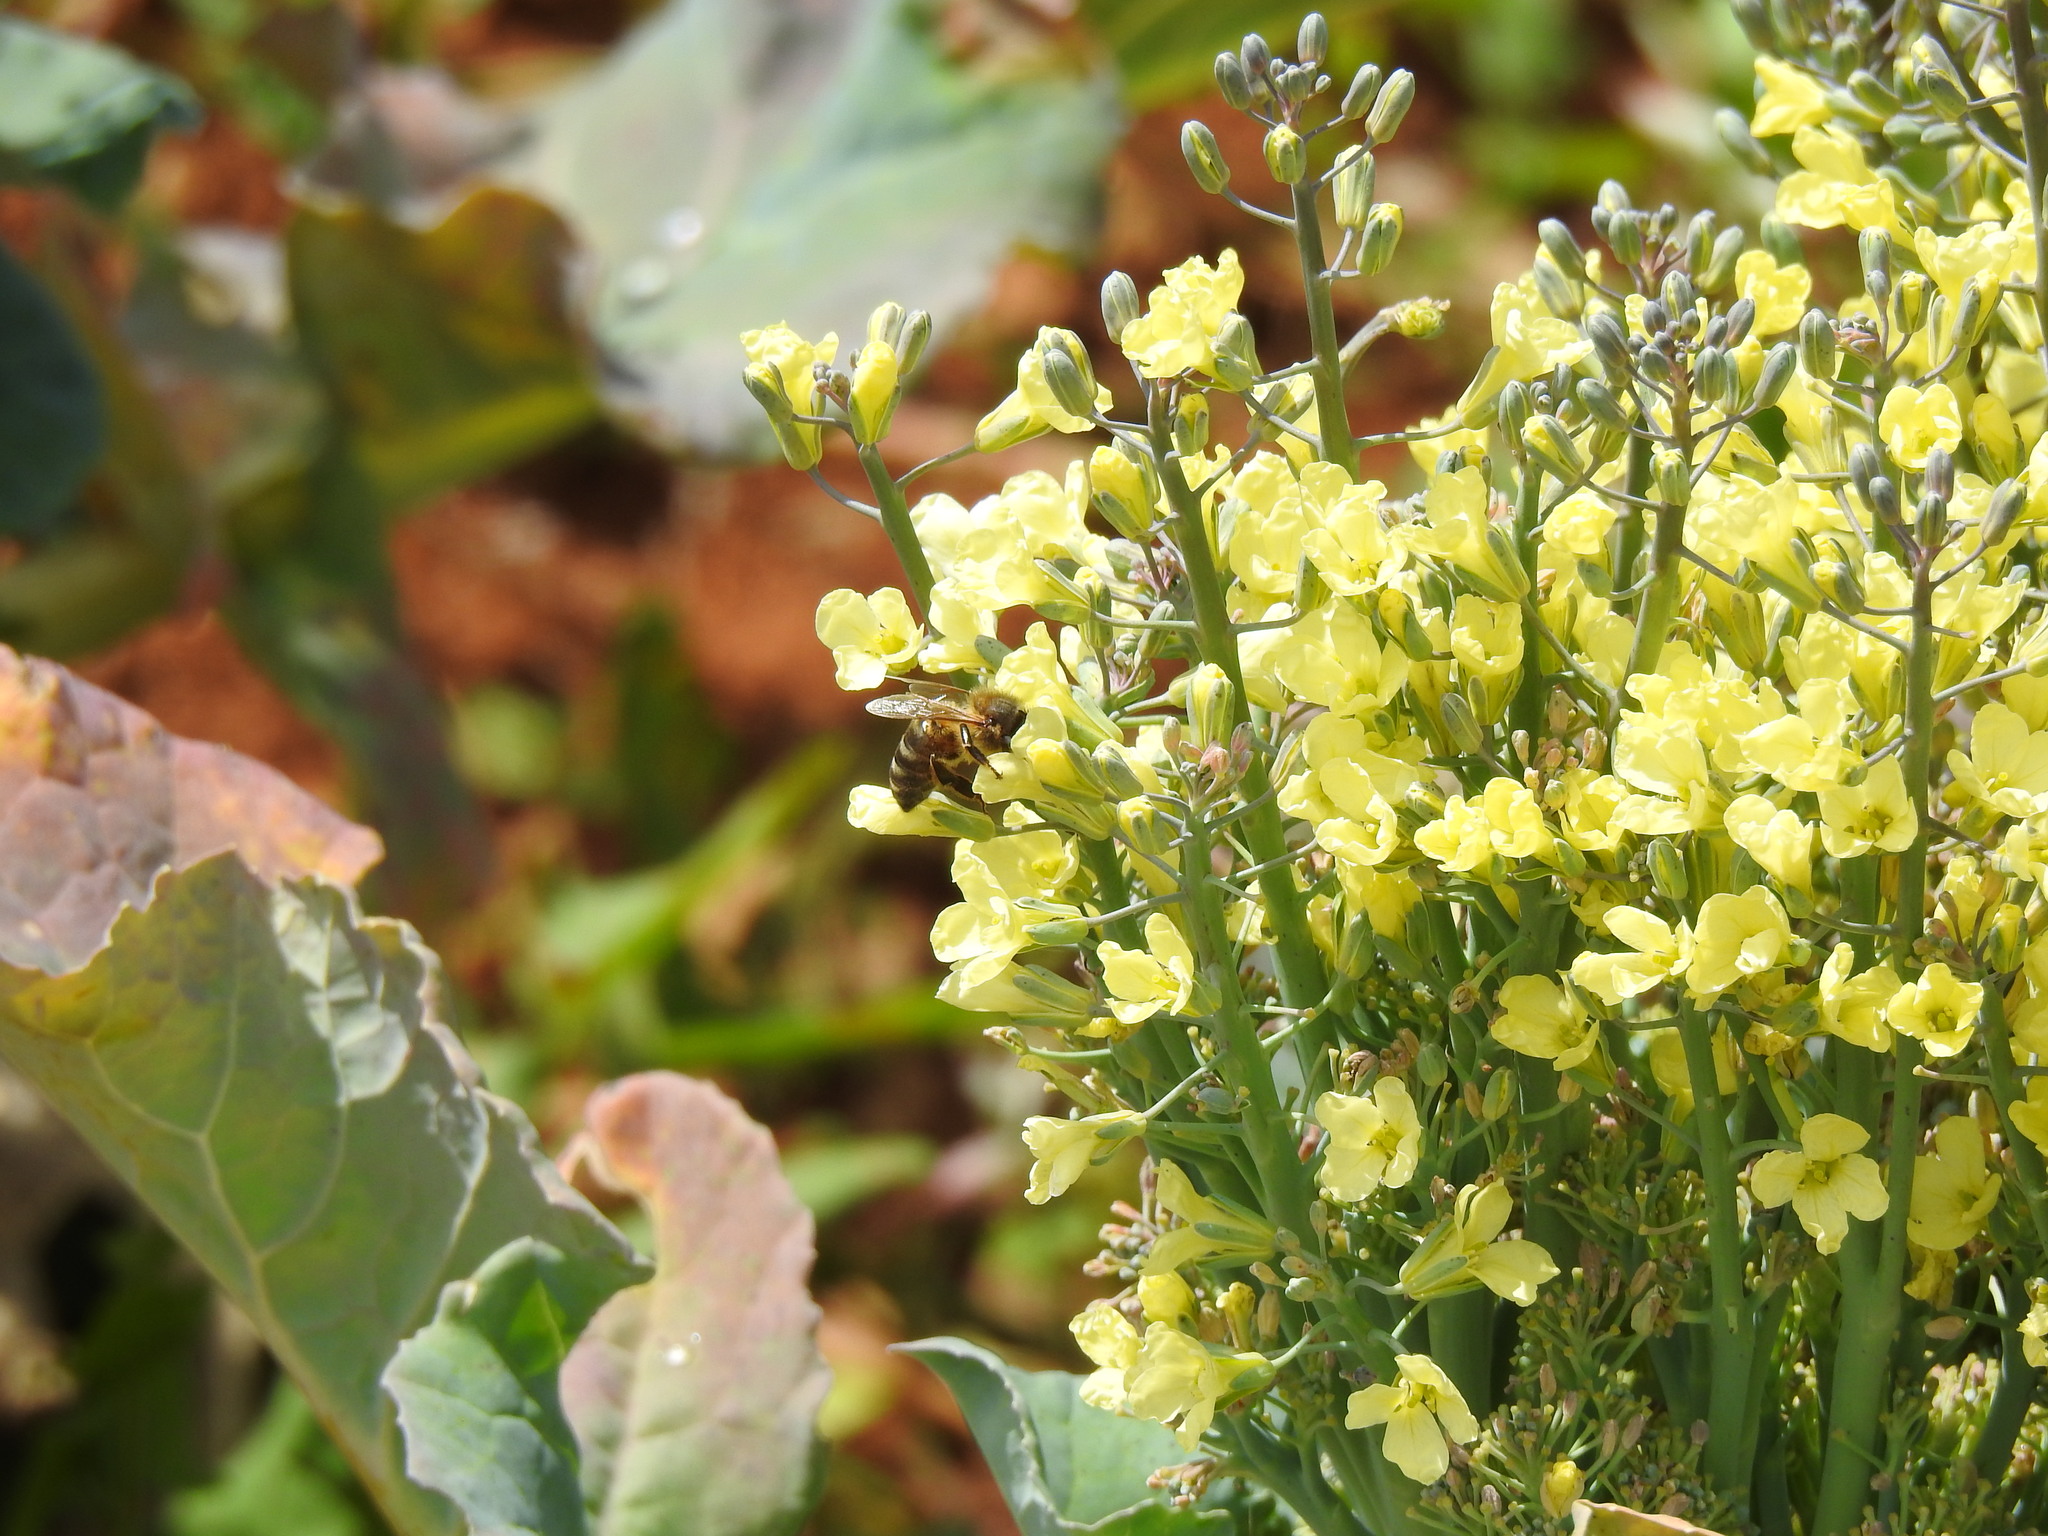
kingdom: Animalia
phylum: Arthropoda
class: Insecta
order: Hymenoptera
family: Apidae
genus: Apis
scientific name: Apis mellifera
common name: Honey bee
